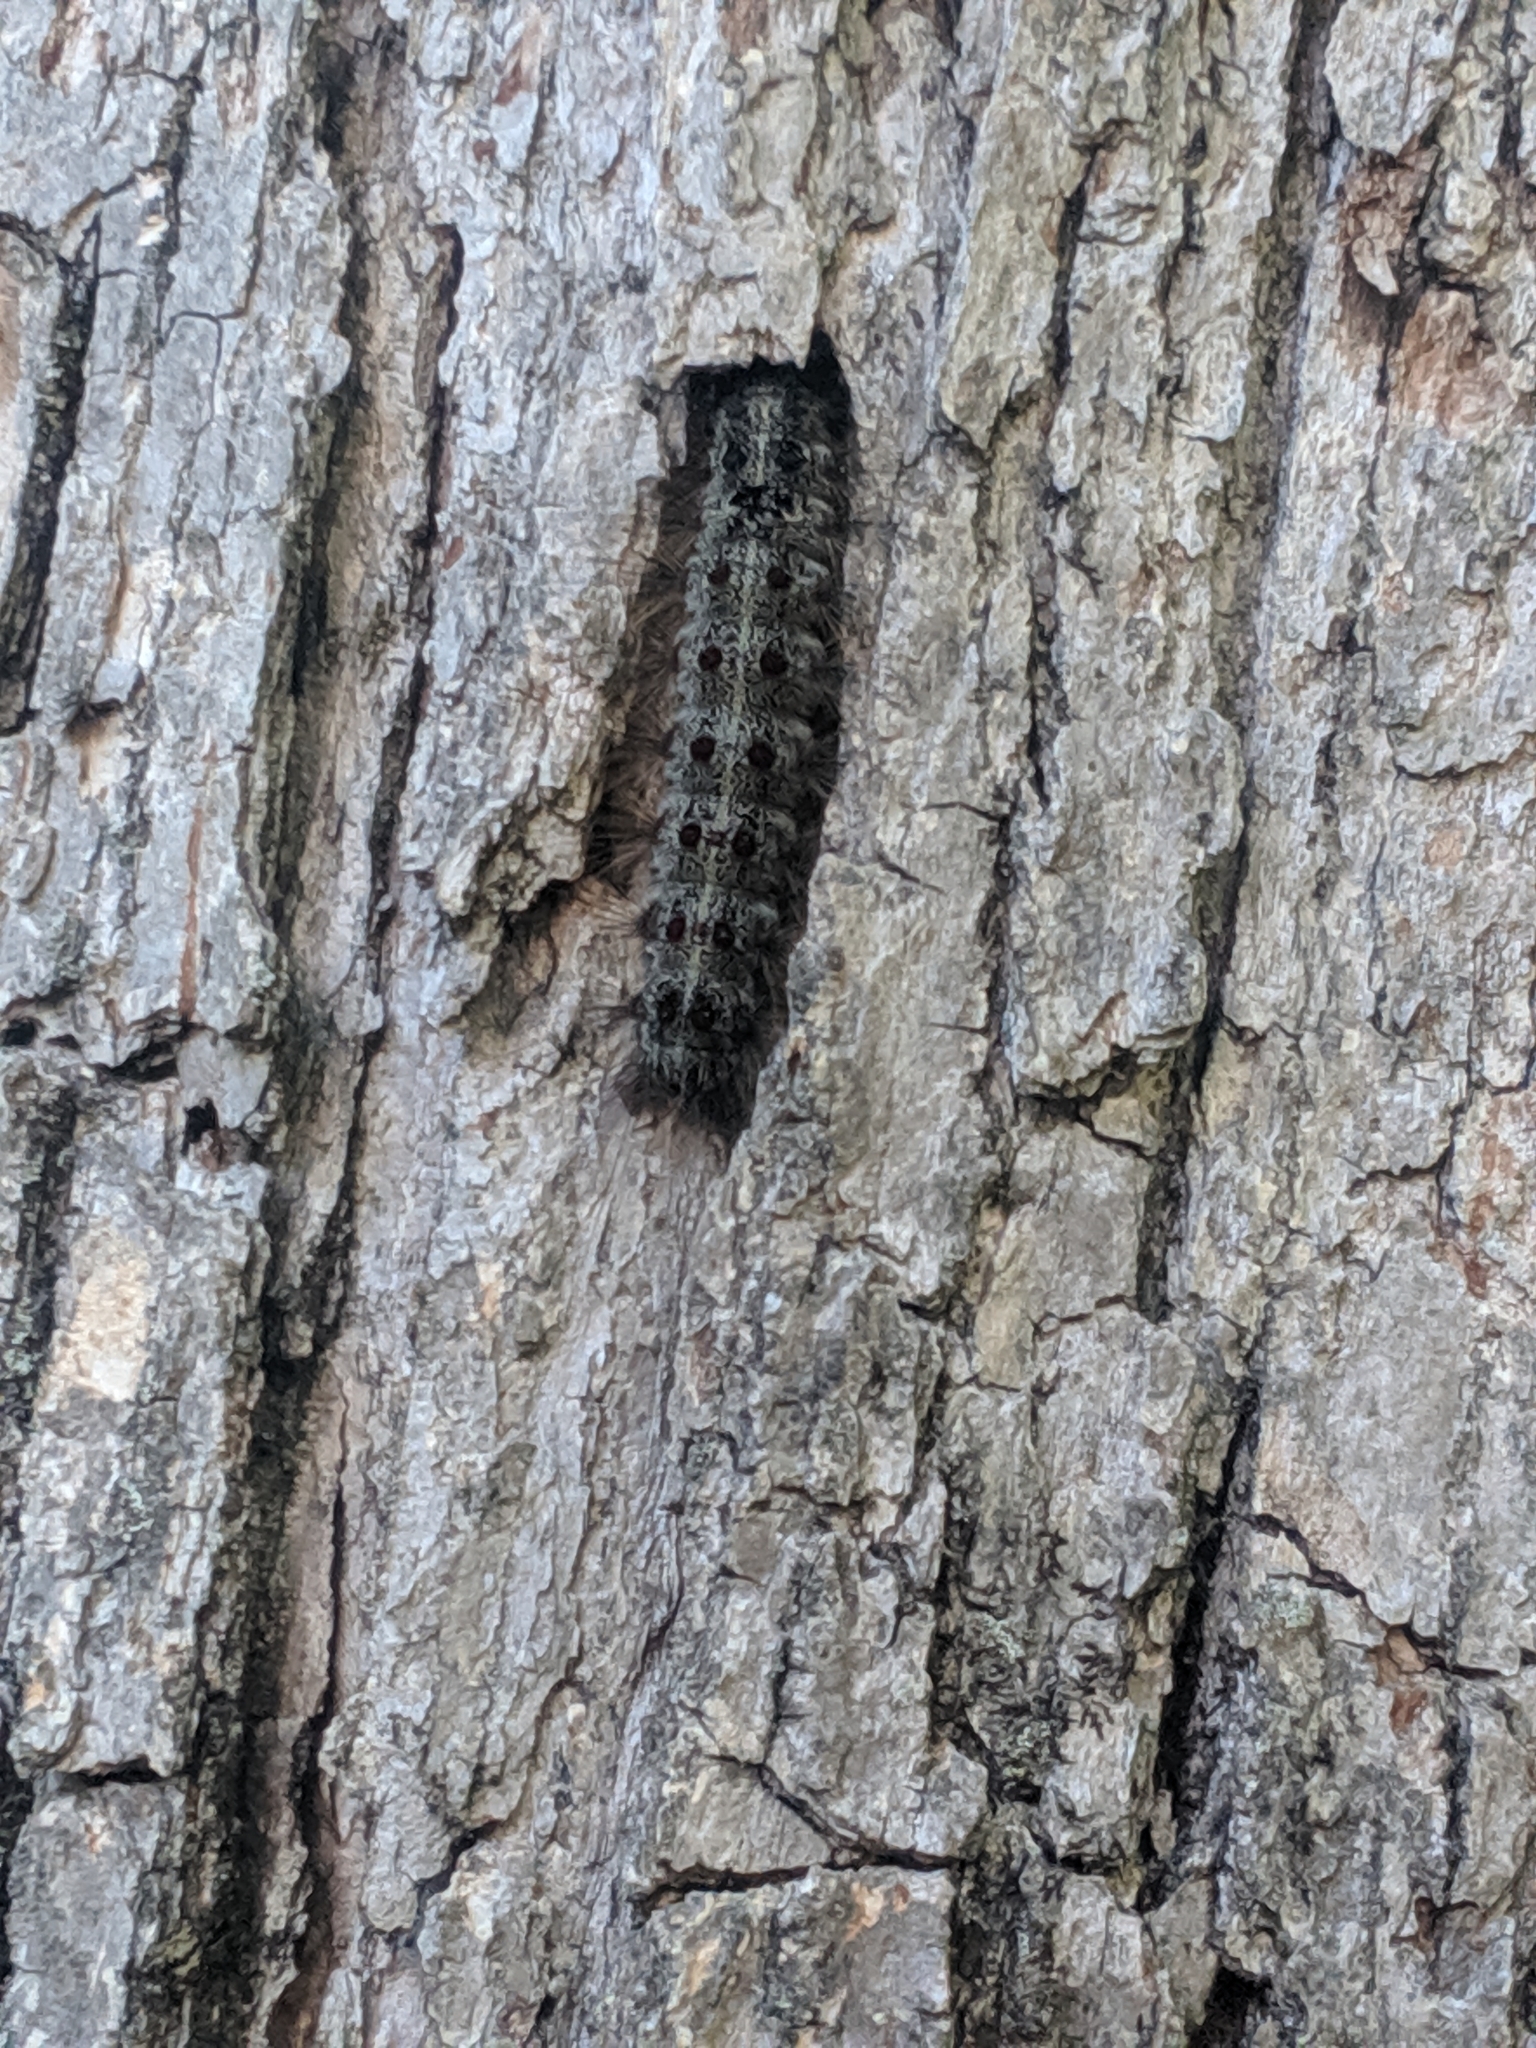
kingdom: Animalia
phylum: Arthropoda
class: Insecta
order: Lepidoptera
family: Erebidae
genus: Lymantria
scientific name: Lymantria dispar
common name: Gypsy moth
